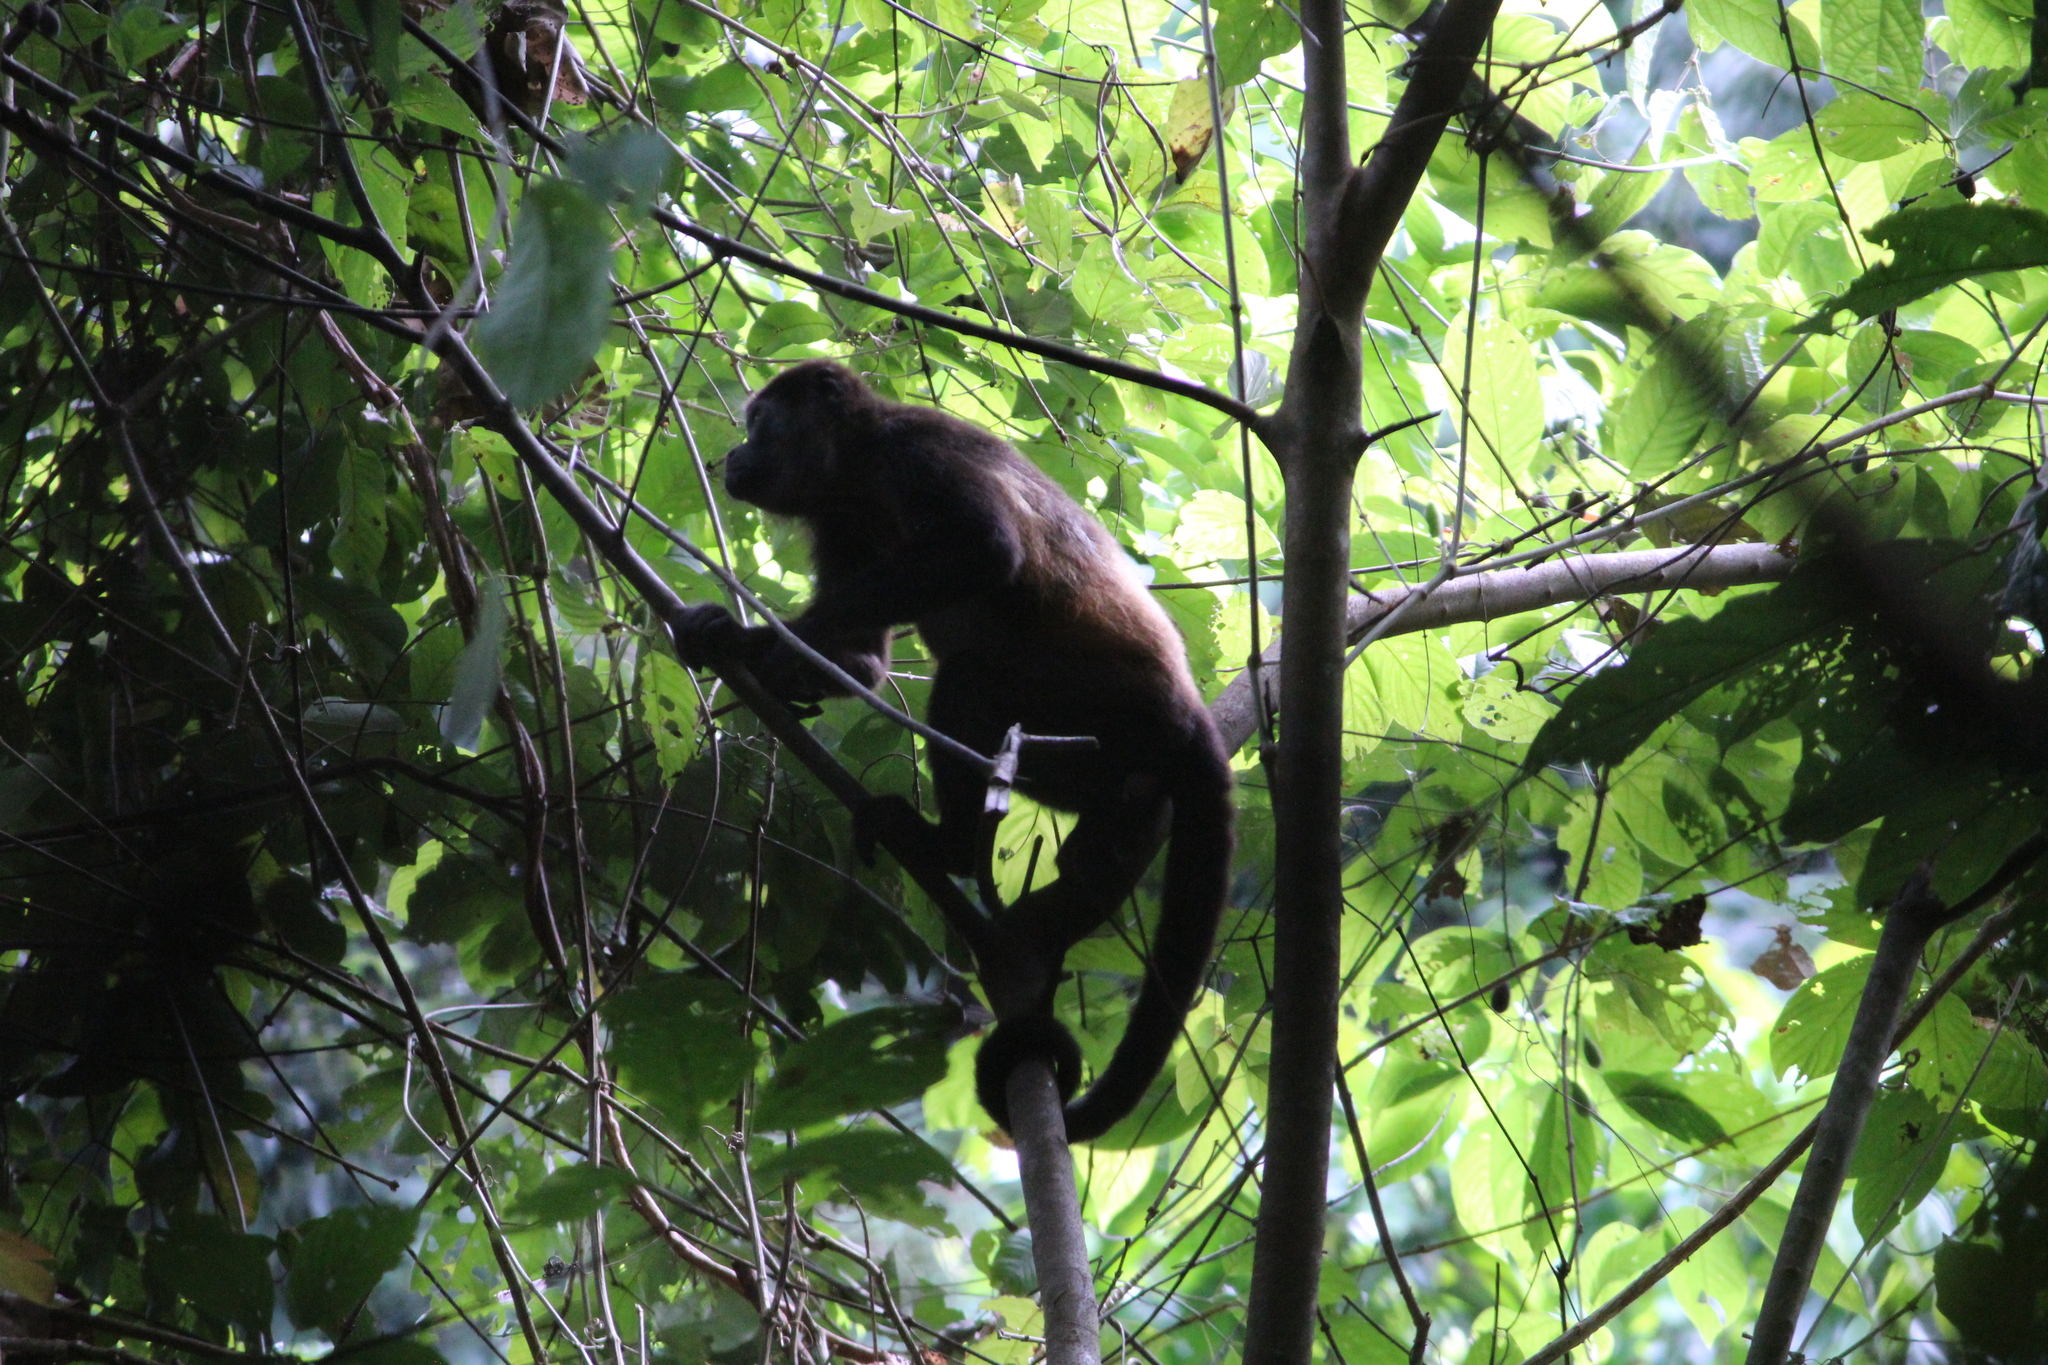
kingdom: Animalia
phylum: Chordata
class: Mammalia
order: Primates
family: Atelidae
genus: Alouatta
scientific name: Alouatta palliata
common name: Mantled howler
